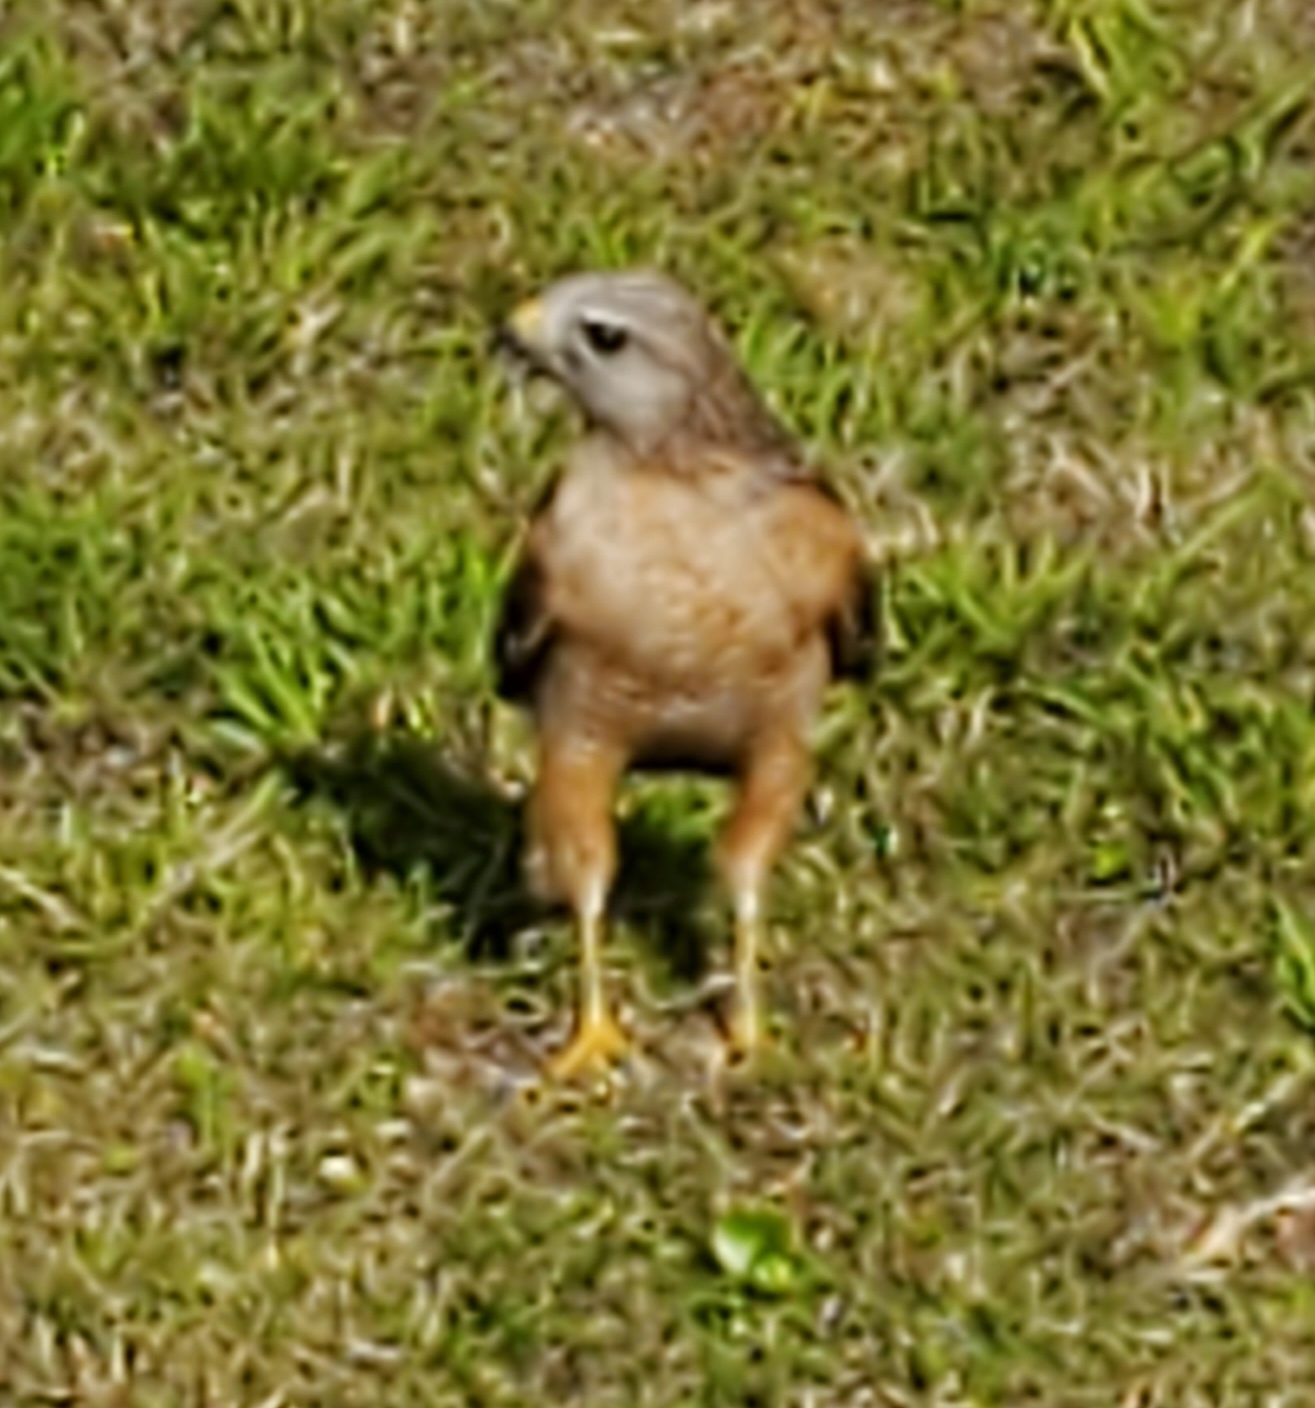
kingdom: Animalia
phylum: Chordata
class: Aves
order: Accipitriformes
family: Accipitridae
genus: Buteo
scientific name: Buteo lineatus
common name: Red-shouldered hawk
